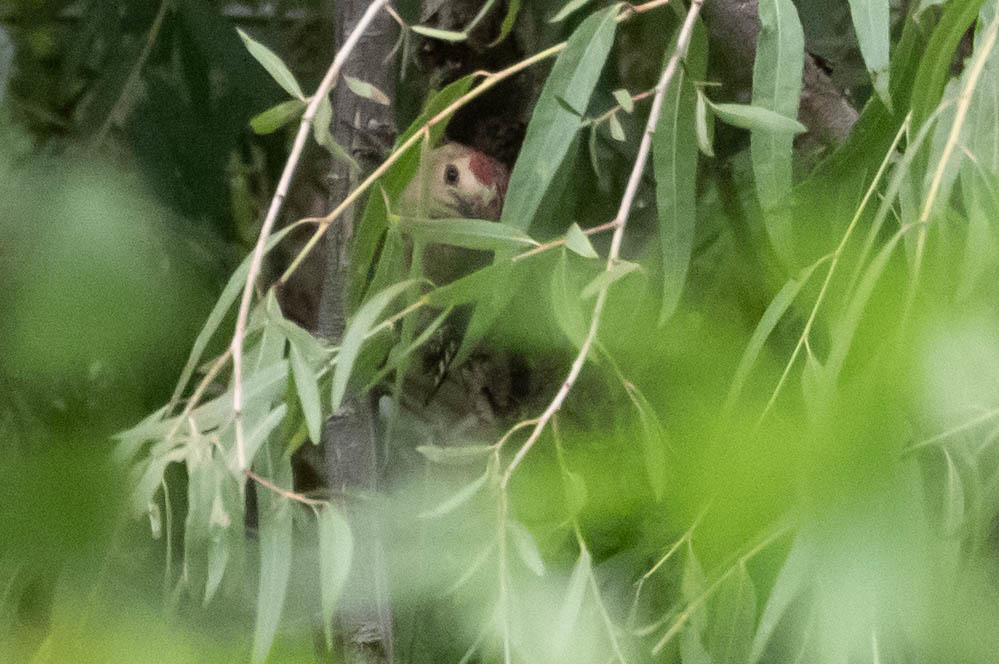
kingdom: Animalia
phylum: Chordata
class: Aves
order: Piciformes
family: Picidae
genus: Melanerpes
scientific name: Melanerpes uropygialis
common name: Gila woodpecker
